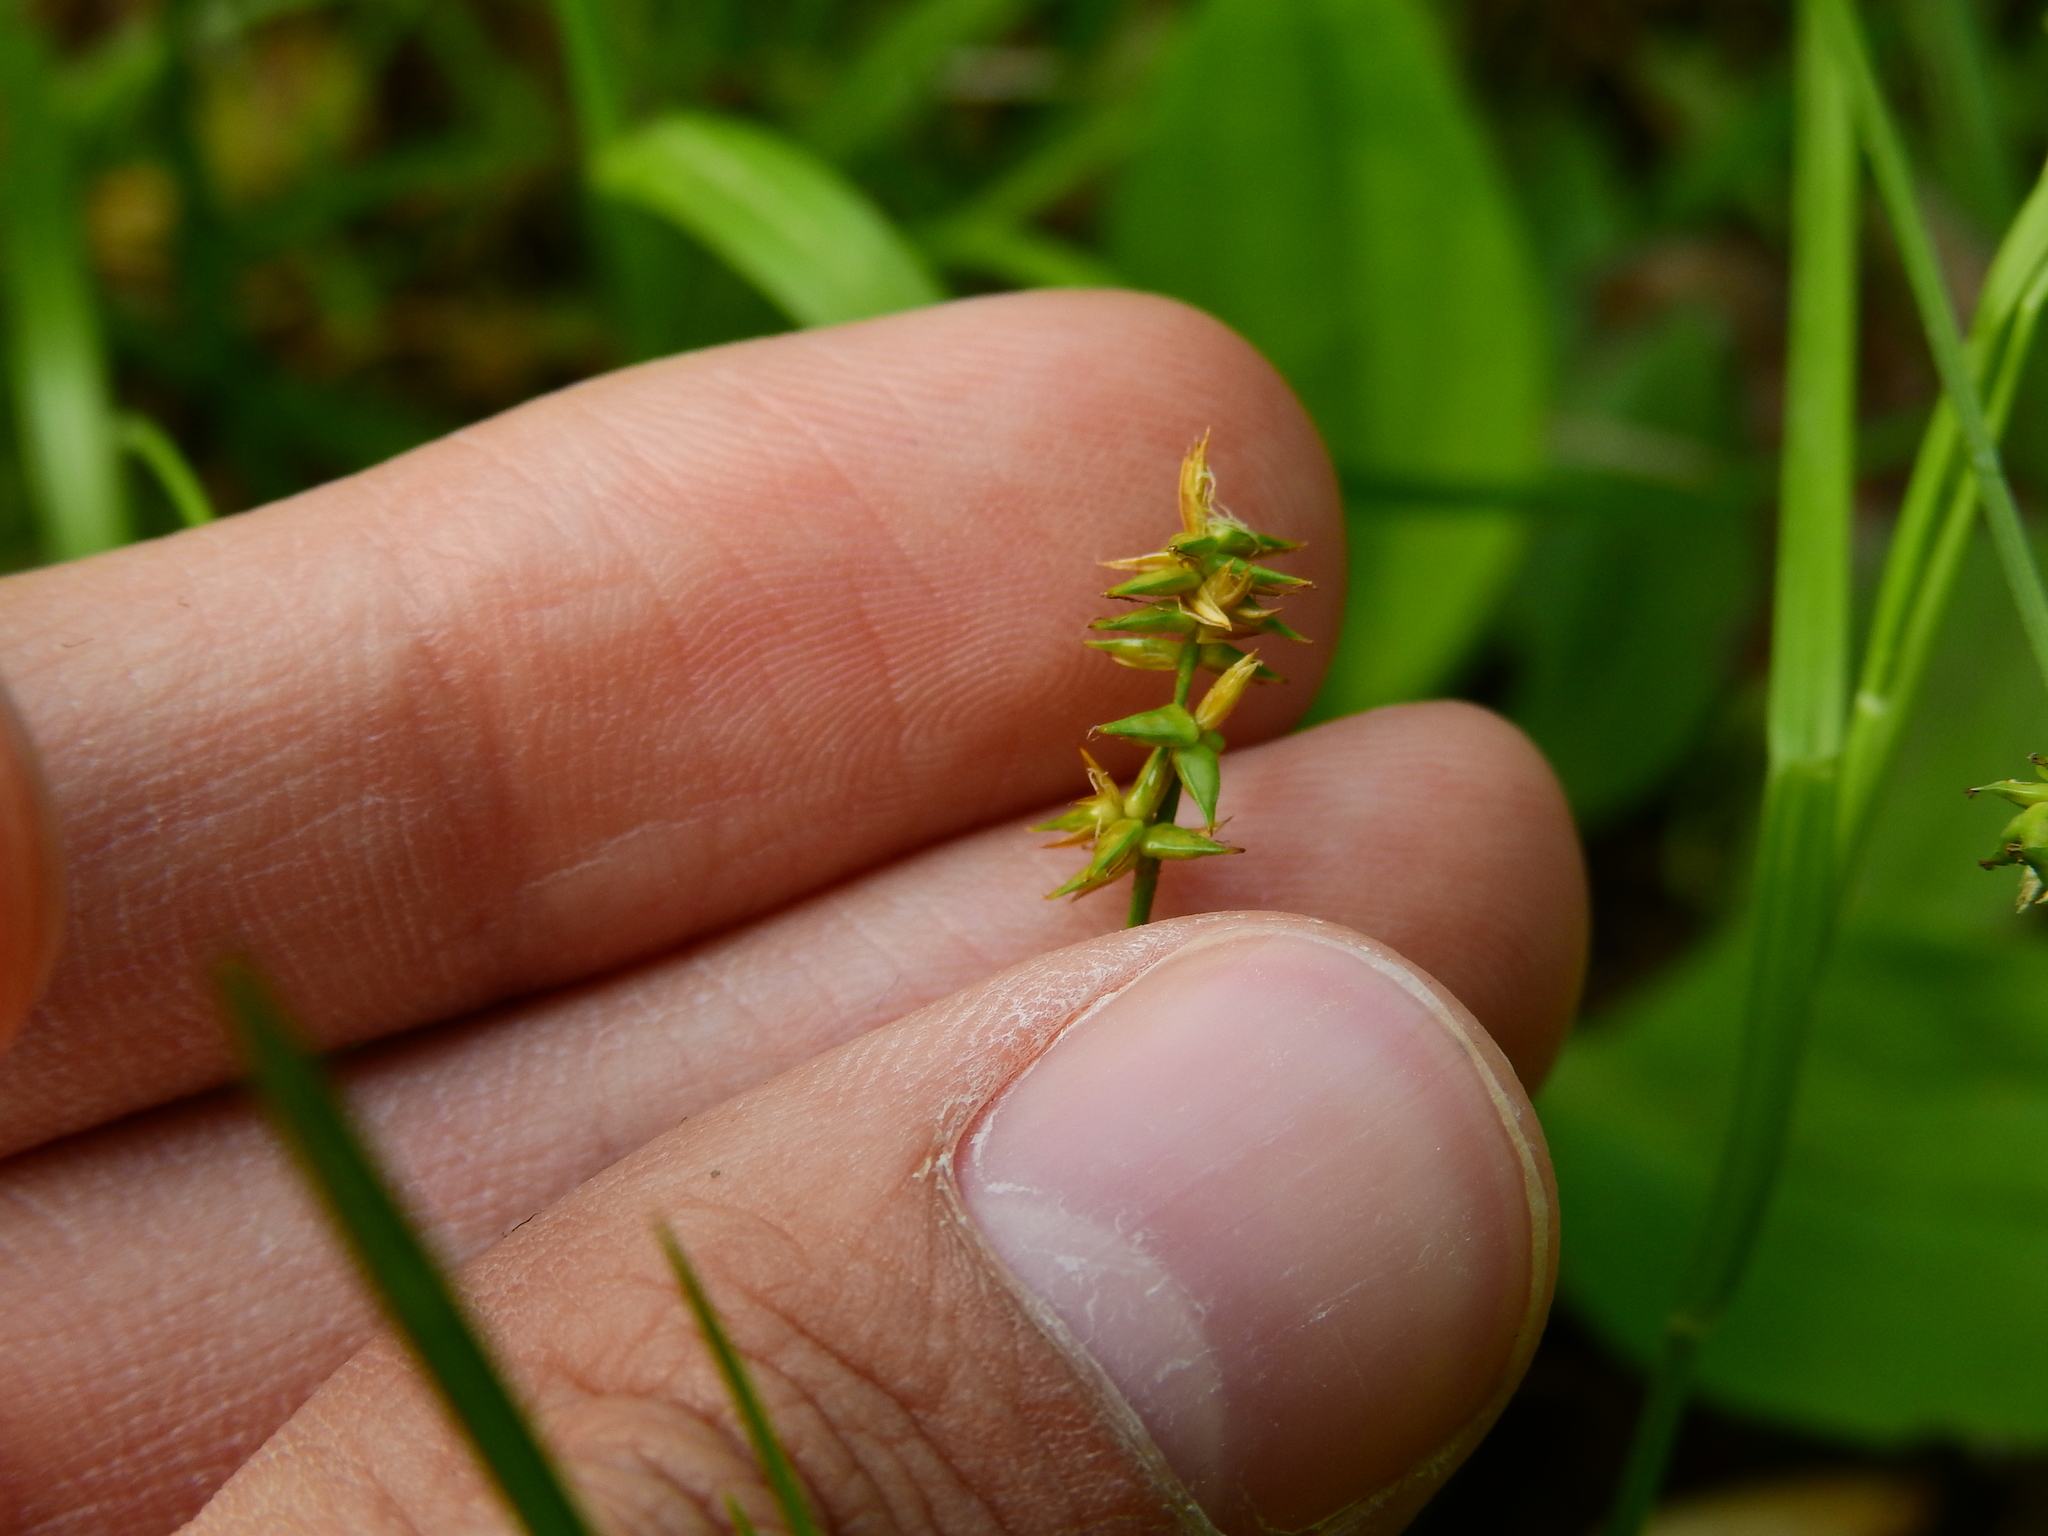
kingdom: Plantae
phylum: Tracheophyta
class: Liliopsida
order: Poales
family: Cyperaceae
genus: Carex
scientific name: Carex rosea
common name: Curly-styled wood sedge
